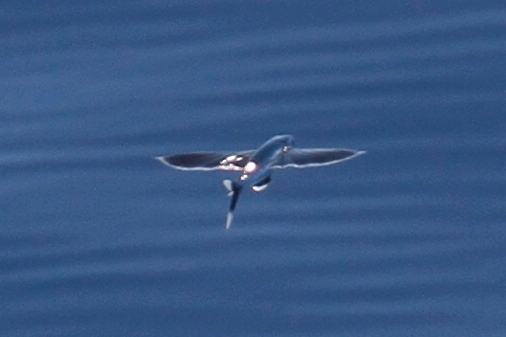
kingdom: Animalia
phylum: Chordata
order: Beloniformes
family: Exocoetidae
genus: Cheilopogon
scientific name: Cheilopogon xenopterus
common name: Whitetip flyingfish
